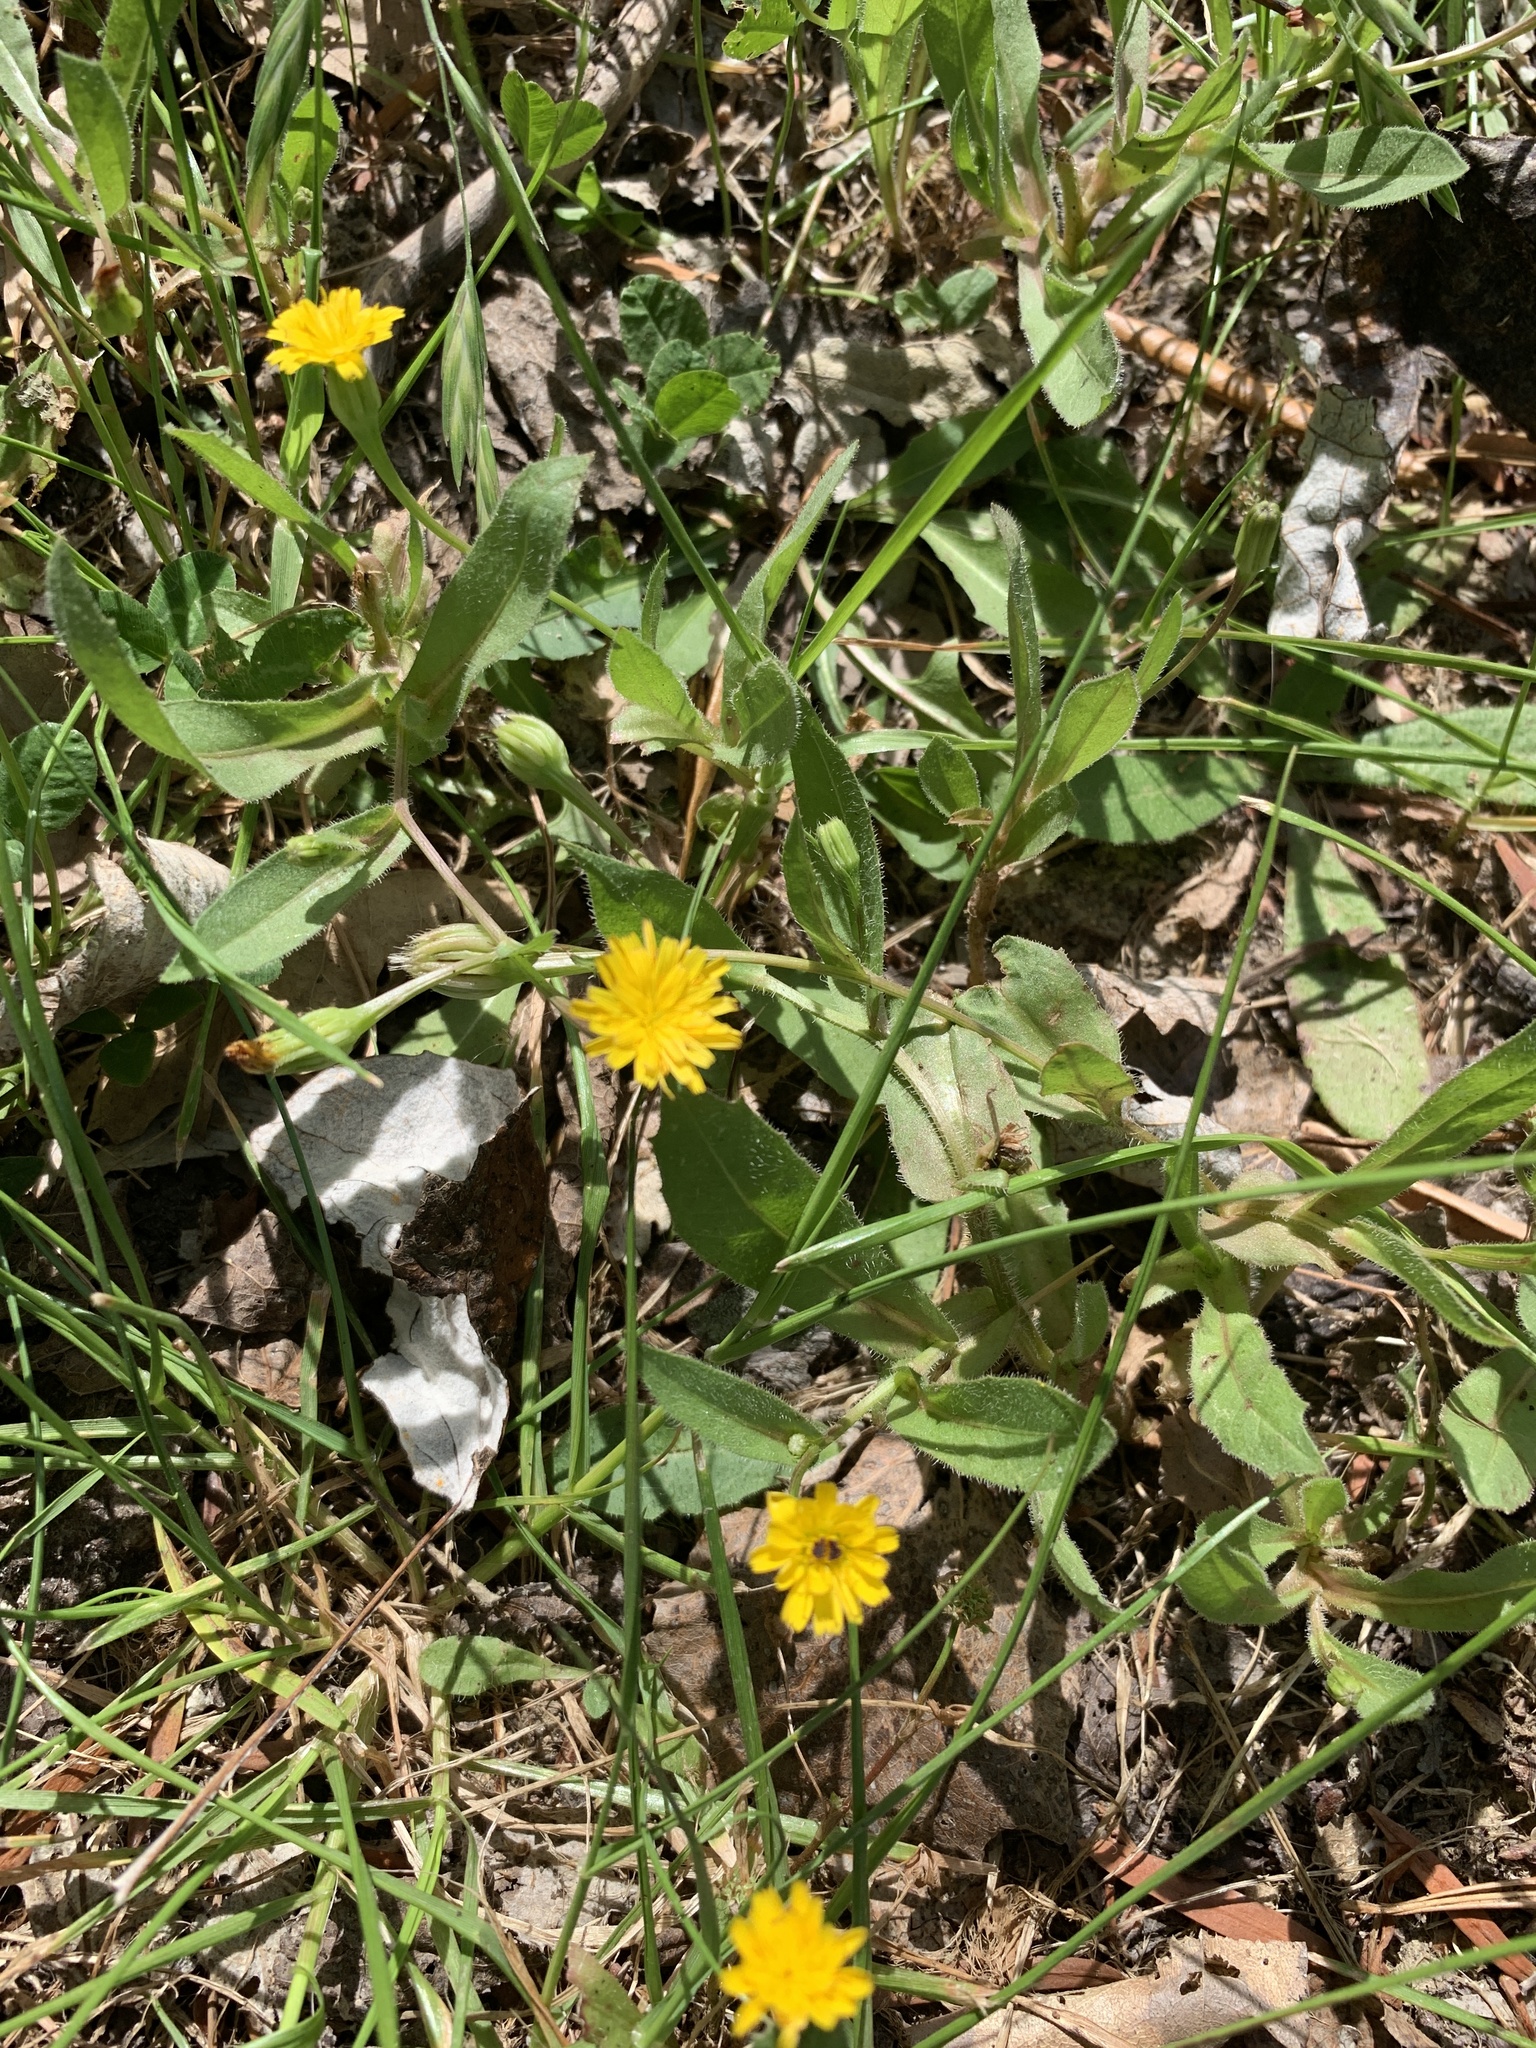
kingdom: Plantae
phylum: Tracheophyta
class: Magnoliopsida
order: Asterales
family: Asteraceae
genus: Hedypnois
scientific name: Hedypnois rhagadioloides
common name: Cretan weed
